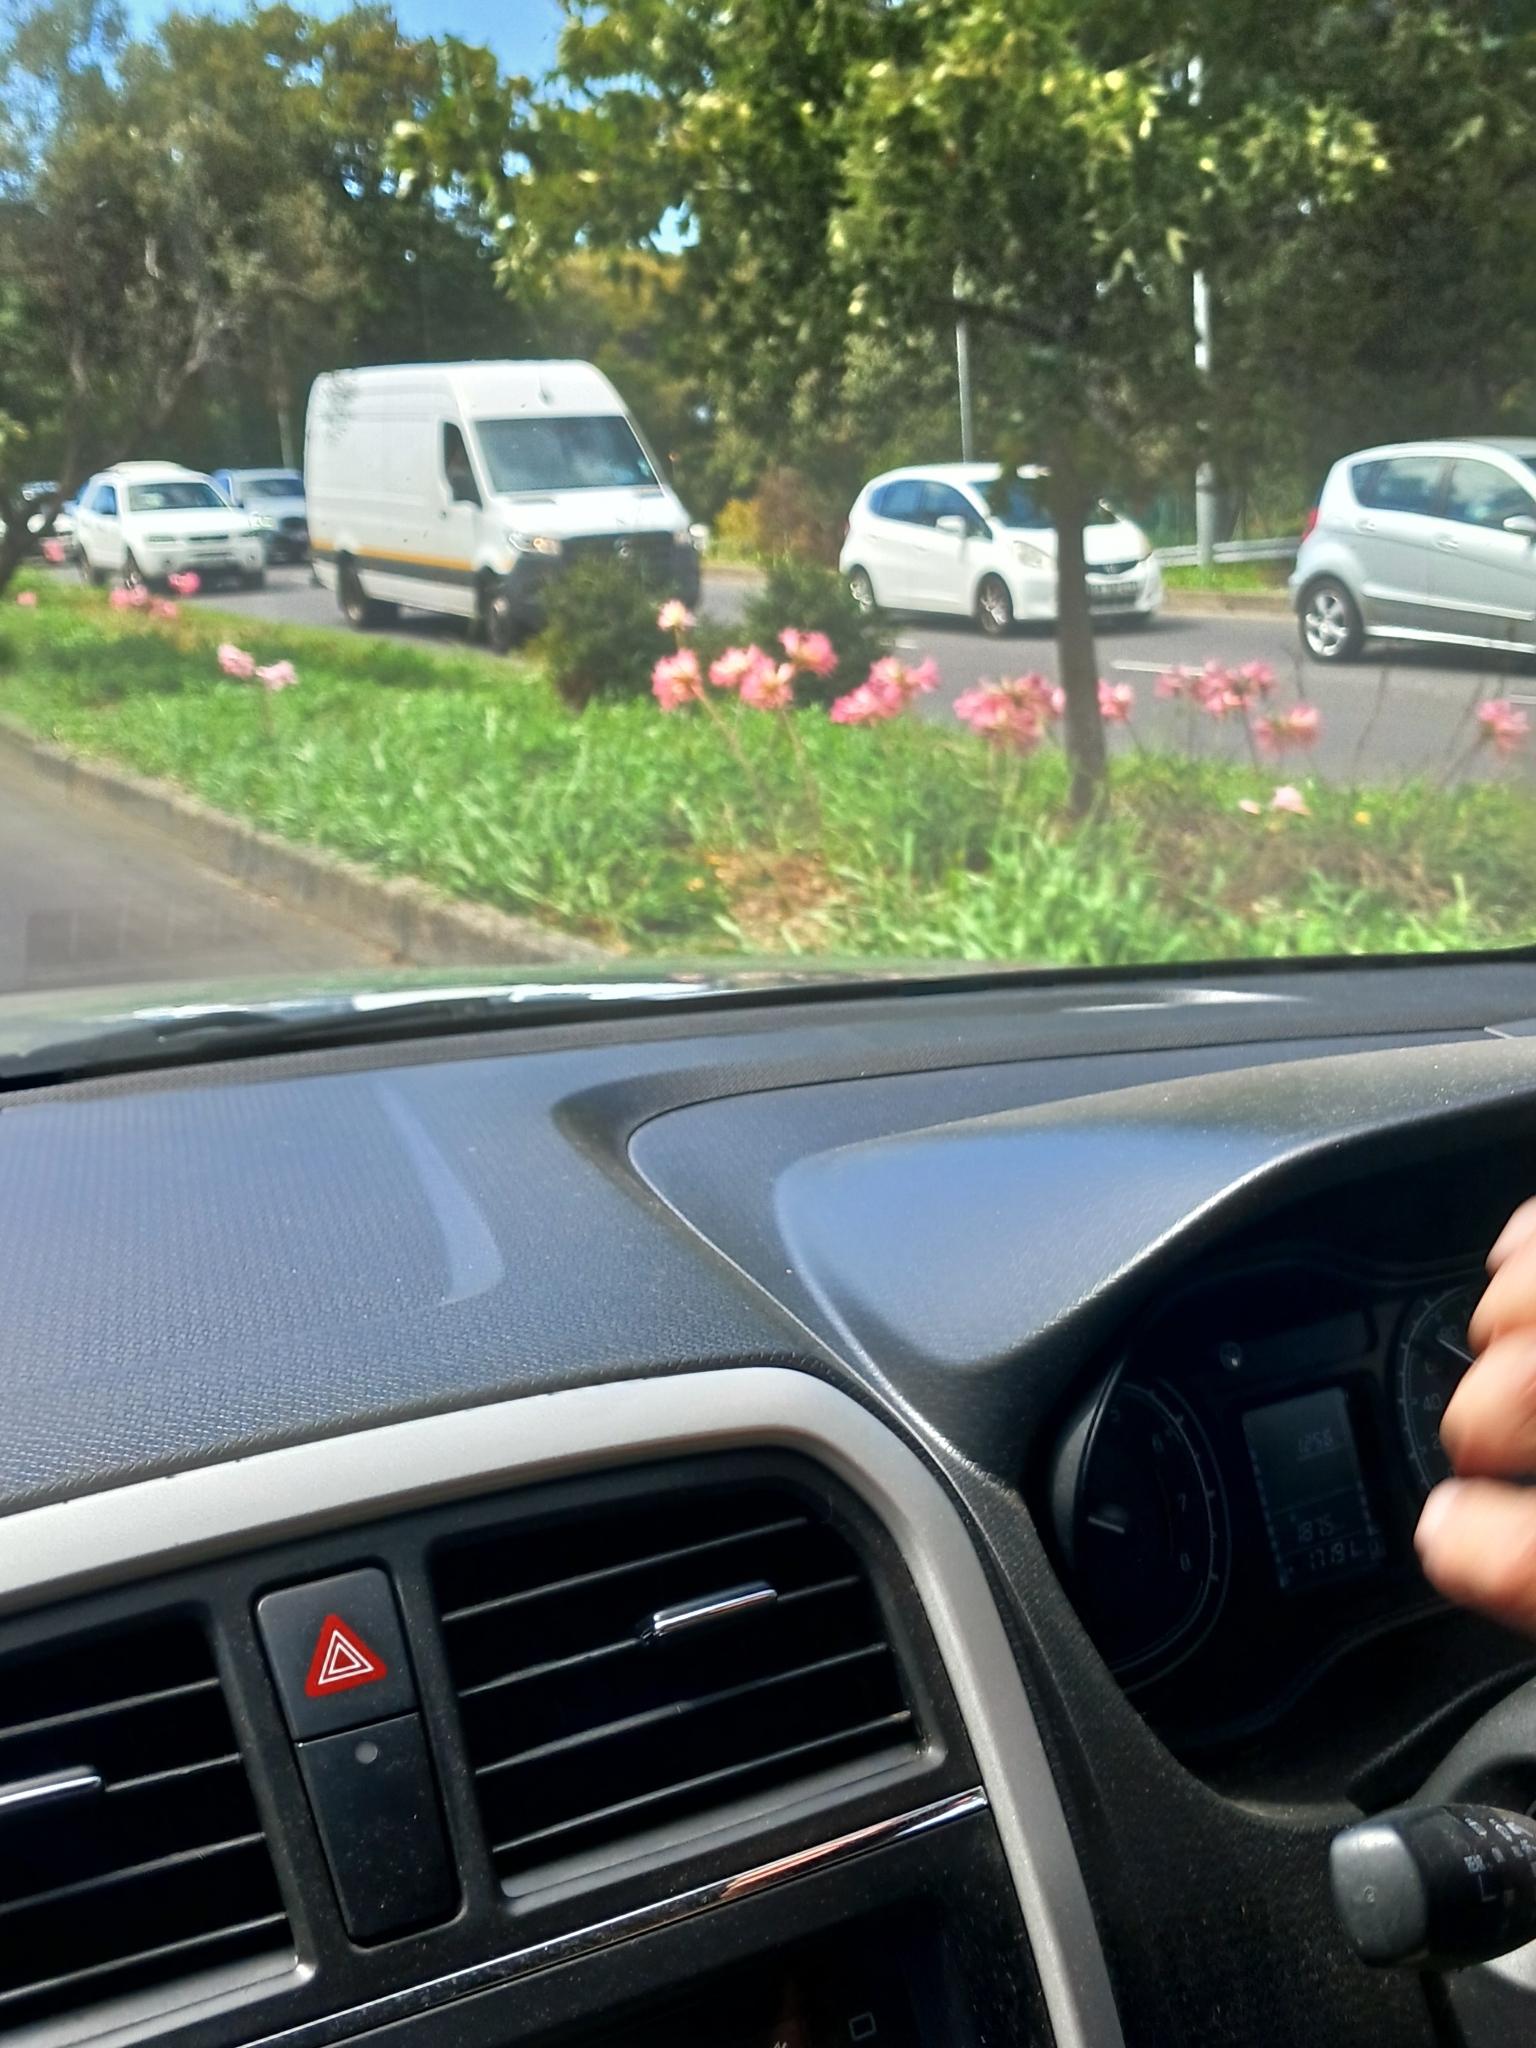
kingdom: Plantae
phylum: Tracheophyta
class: Liliopsida
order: Asparagales
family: Amaryllidaceae
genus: Amaryllis
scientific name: Amaryllis belladonna
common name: Jersey lily
